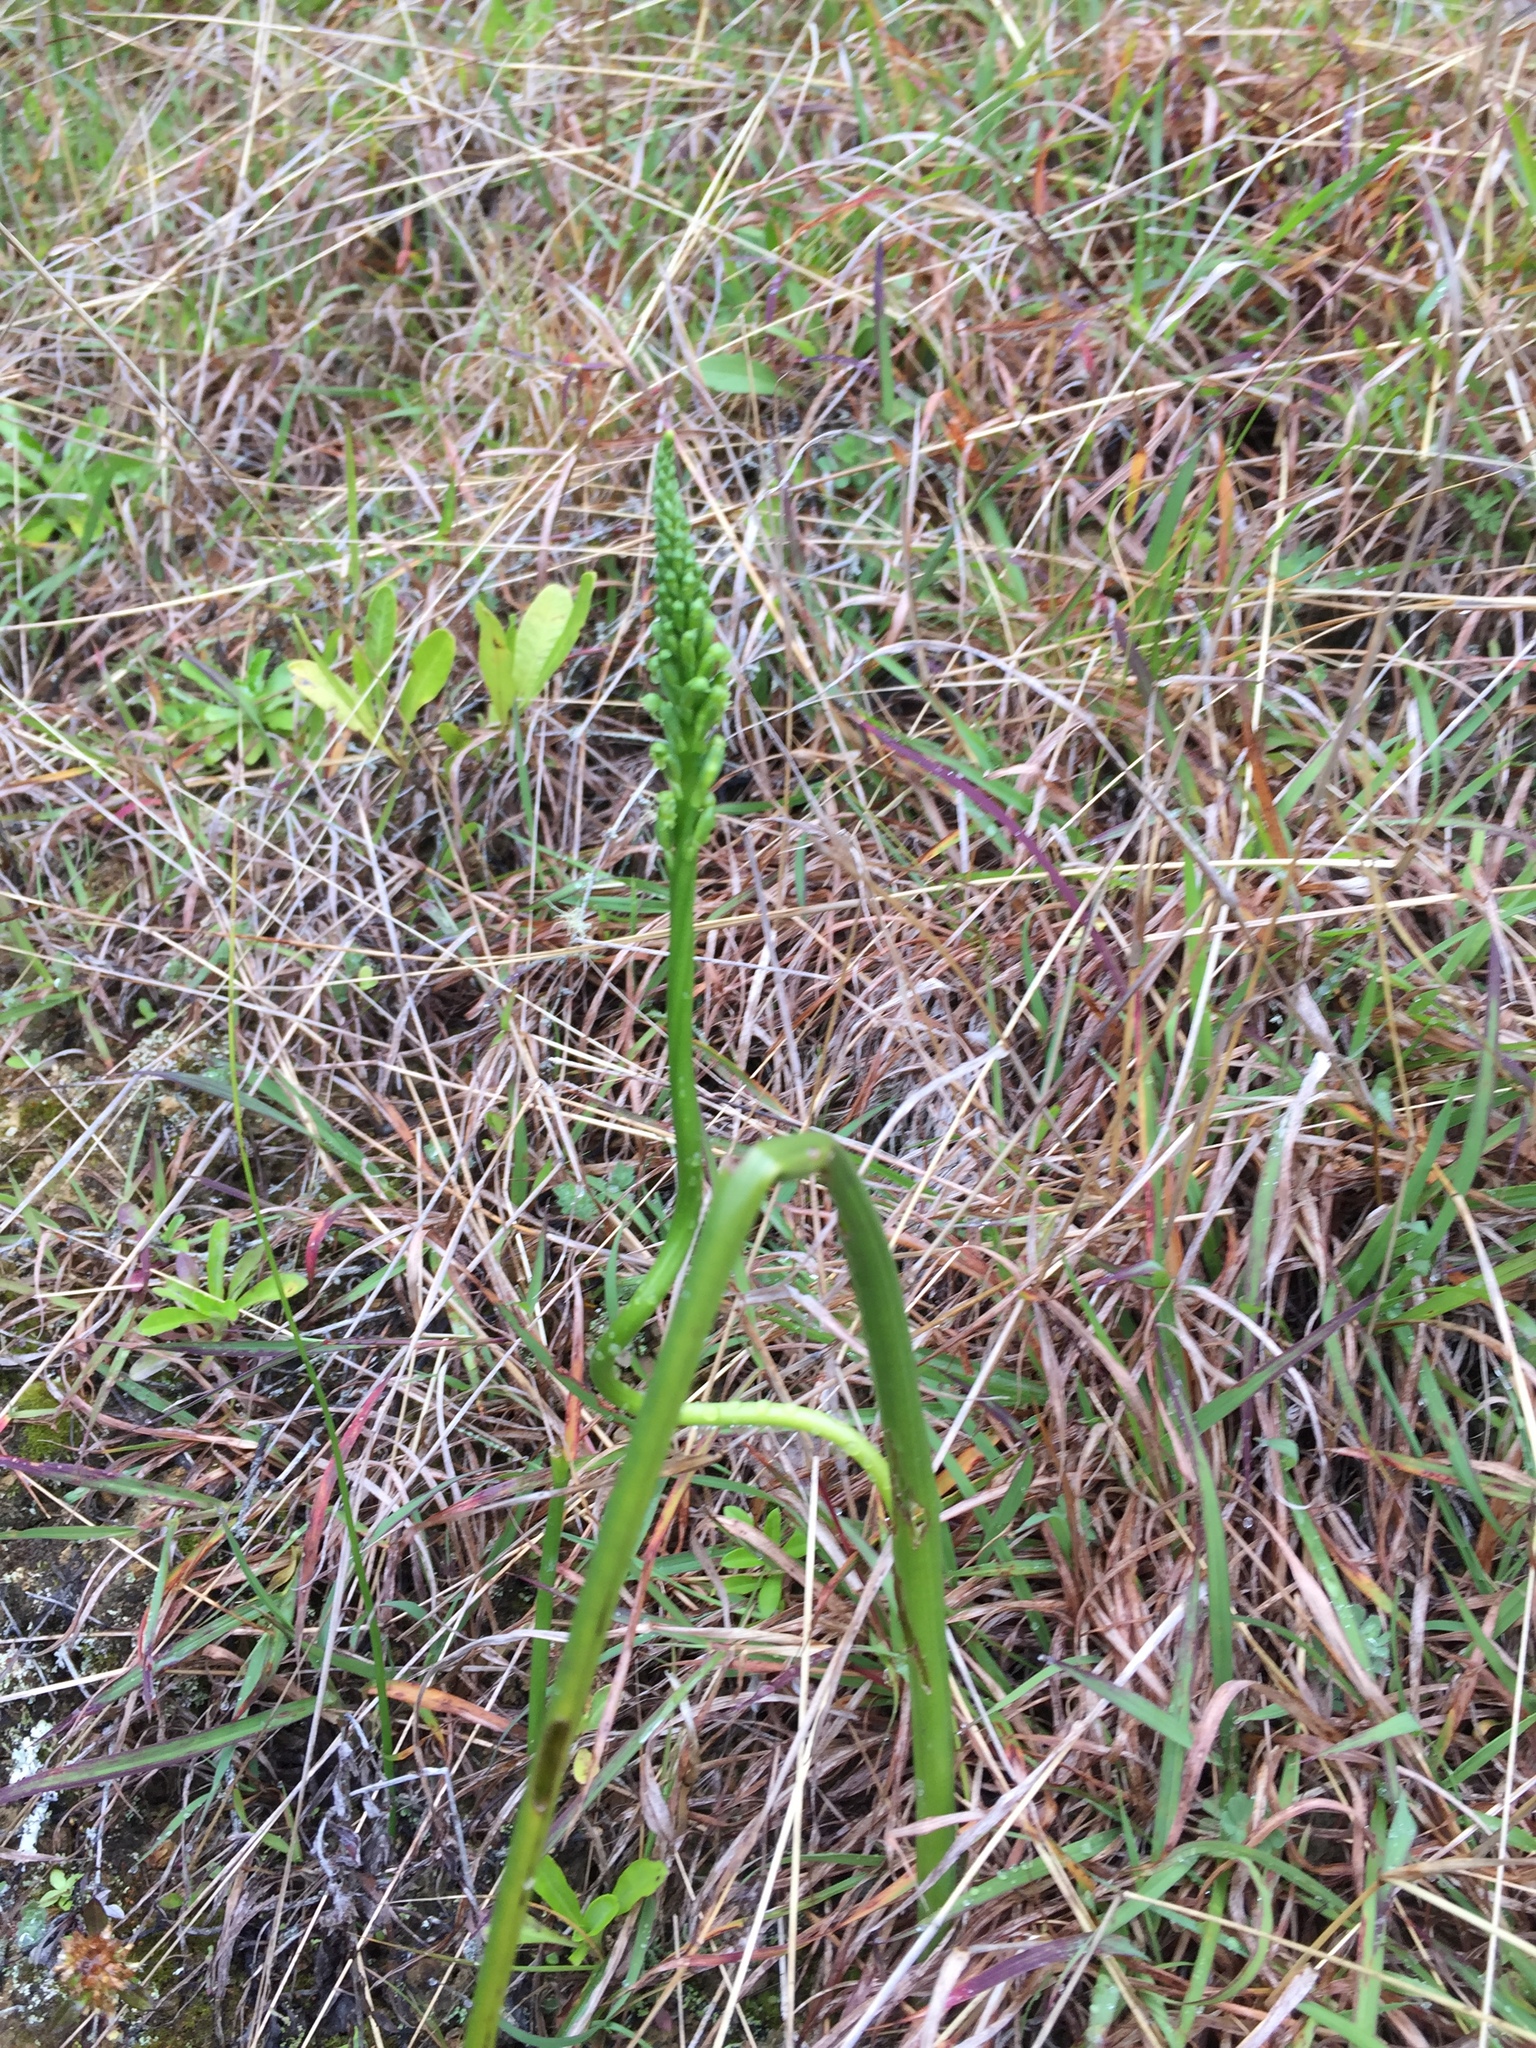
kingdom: Plantae
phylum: Tracheophyta
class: Liliopsida
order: Asparagales
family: Orchidaceae
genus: Microtis
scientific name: Microtis unifolia
